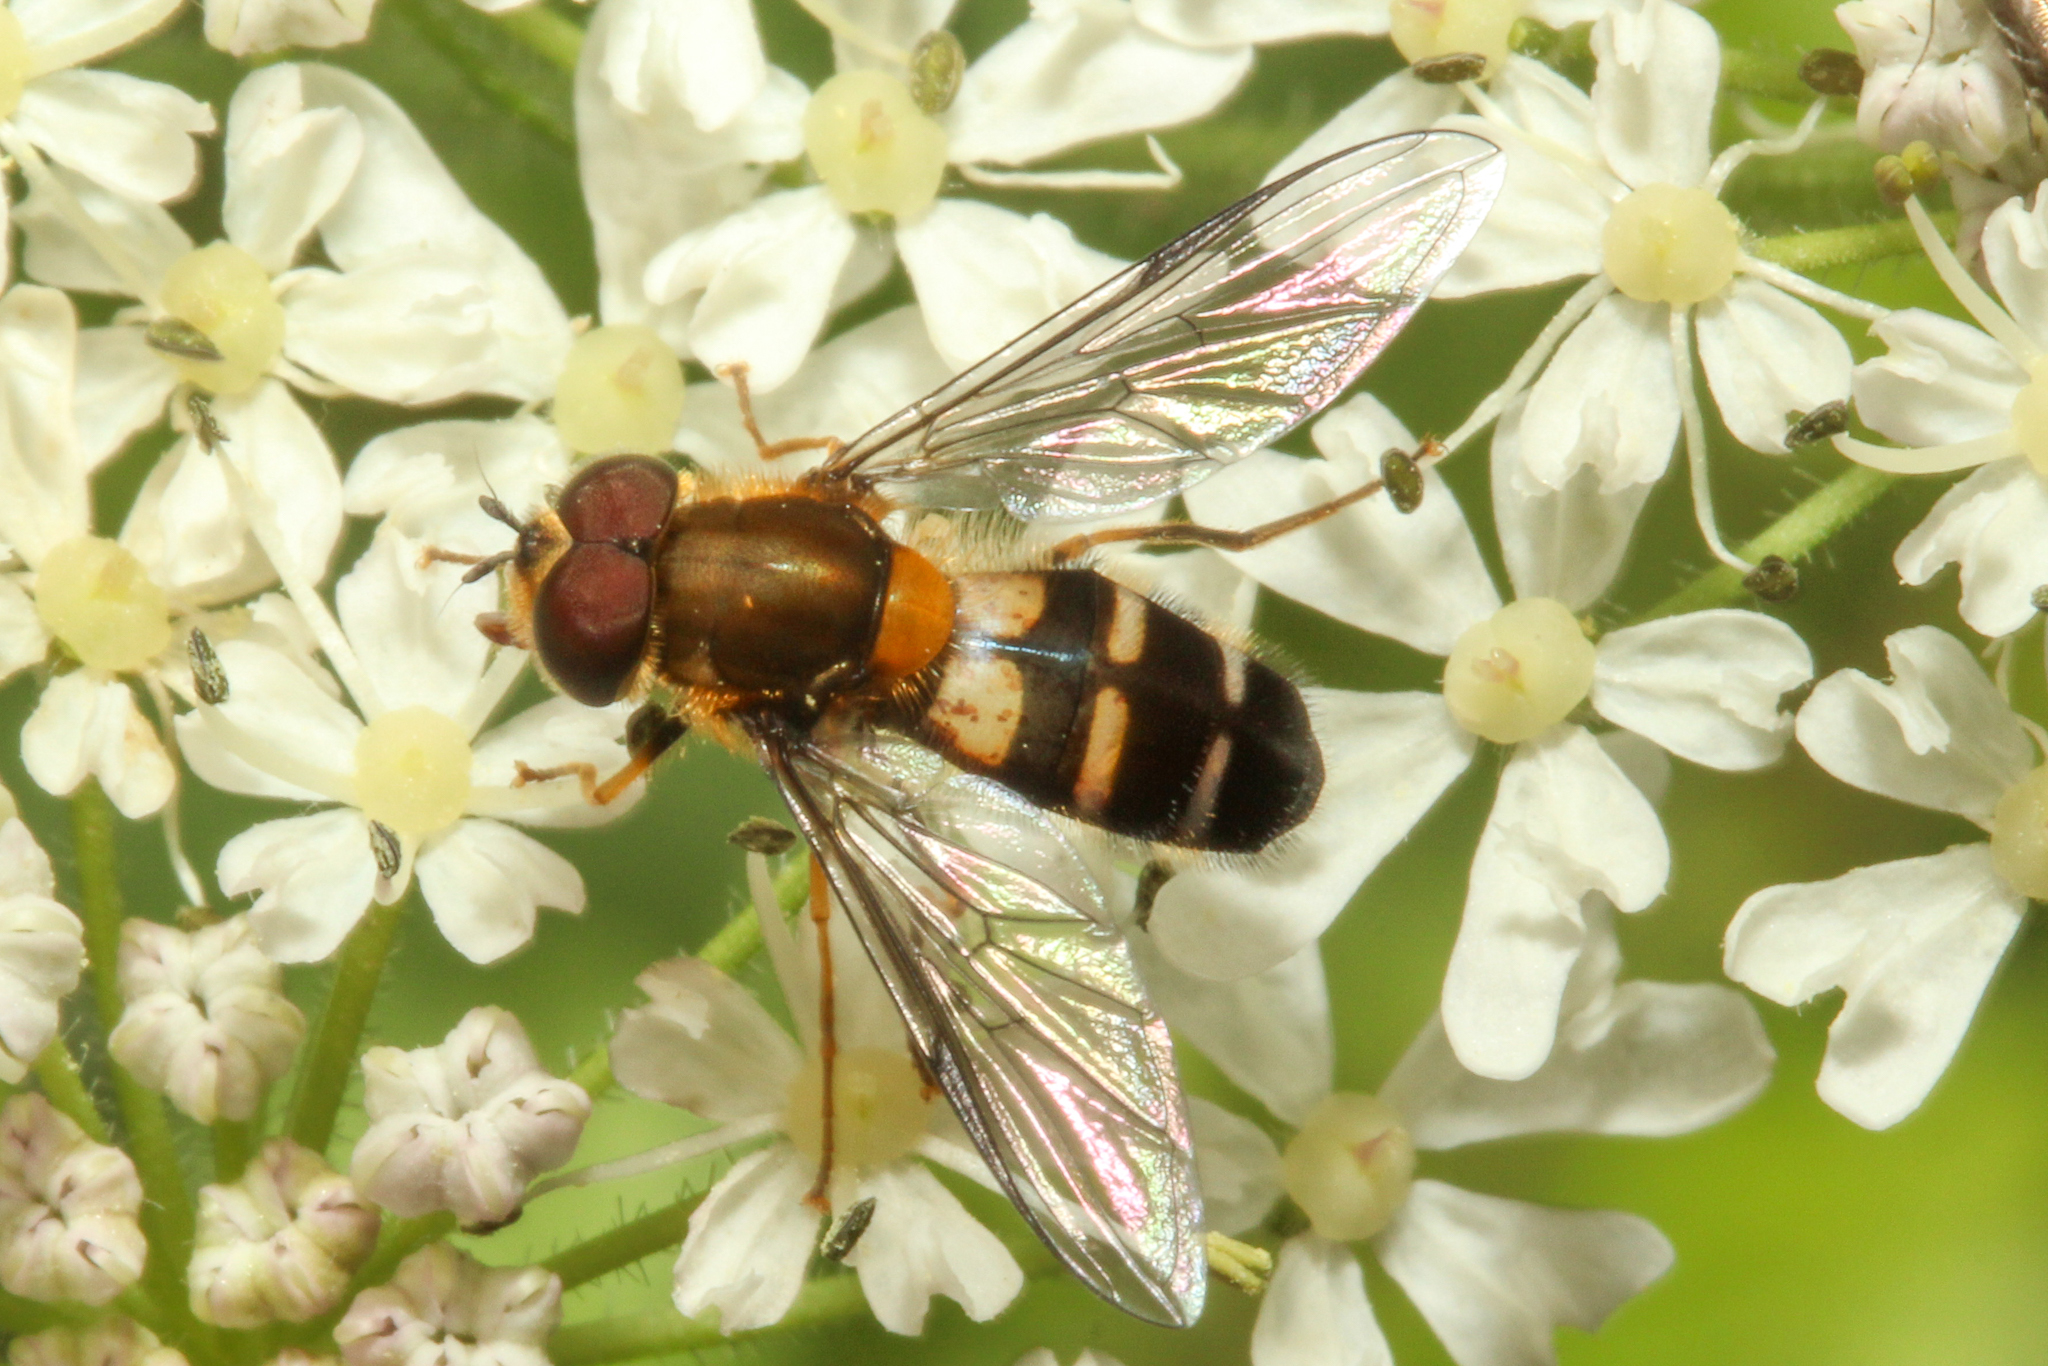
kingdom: Animalia
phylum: Arthropoda
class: Insecta
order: Diptera
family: Syrphidae
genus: Leucozona
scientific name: Leucozona glaucia
